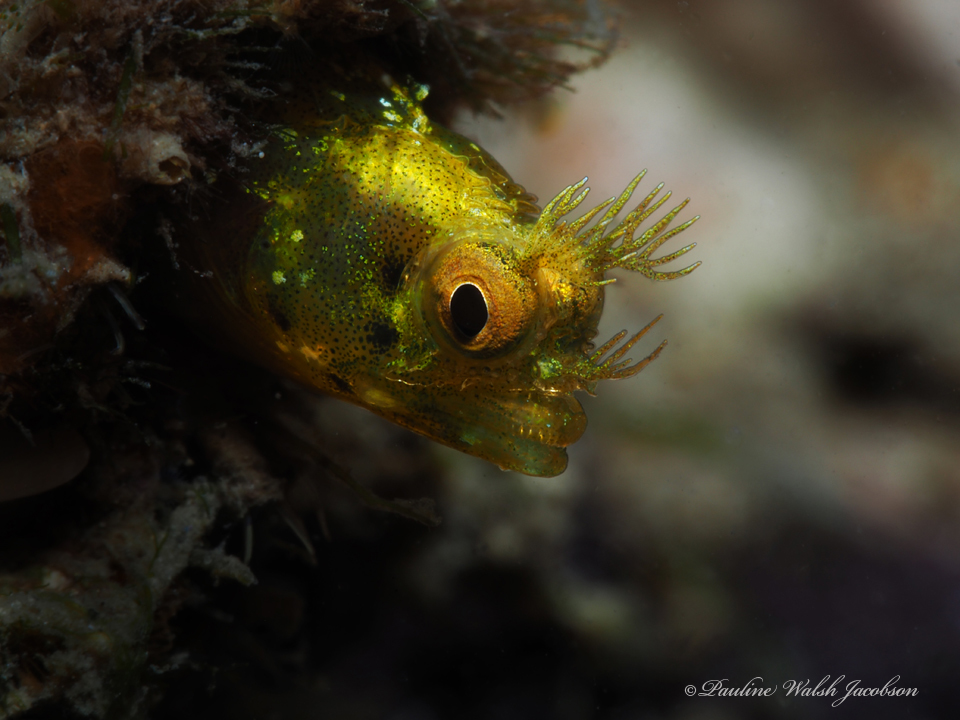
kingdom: Animalia
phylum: Chordata
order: Perciformes
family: Chaenopsidae
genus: Acanthemblemaria
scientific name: Acanthemblemaria aspera
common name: Roughhead blenny
